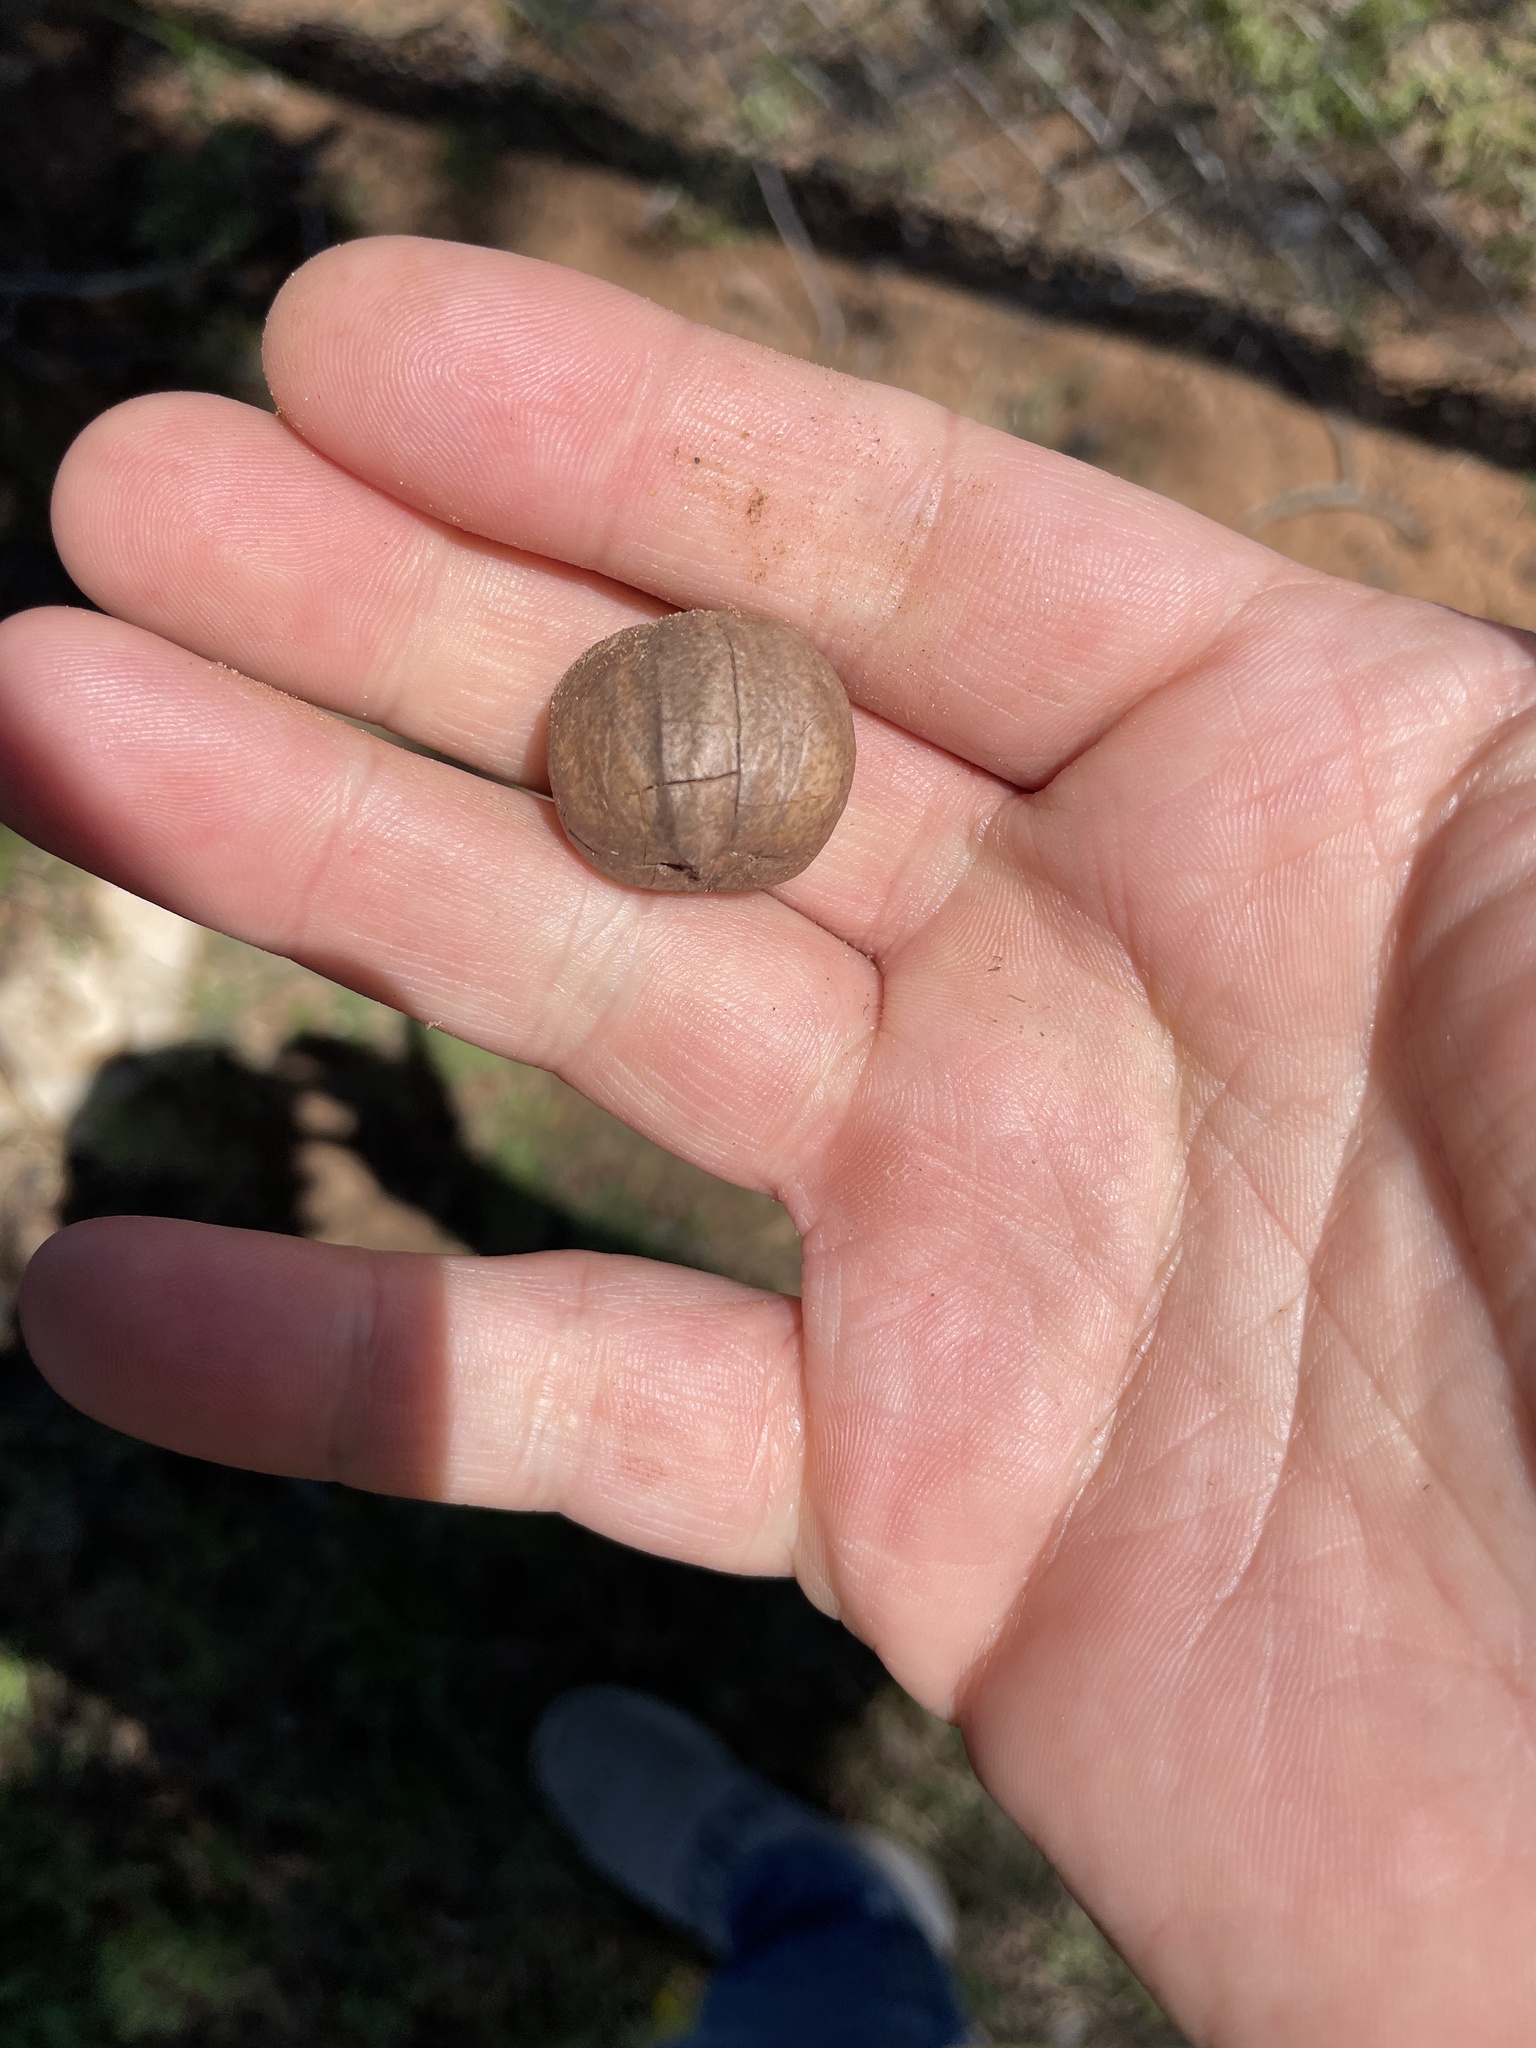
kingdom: Plantae
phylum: Tracheophyta
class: Magnoliopsida
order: Fagales
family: Juglandaceae
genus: Carya
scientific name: Carya texana
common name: Black hickory
